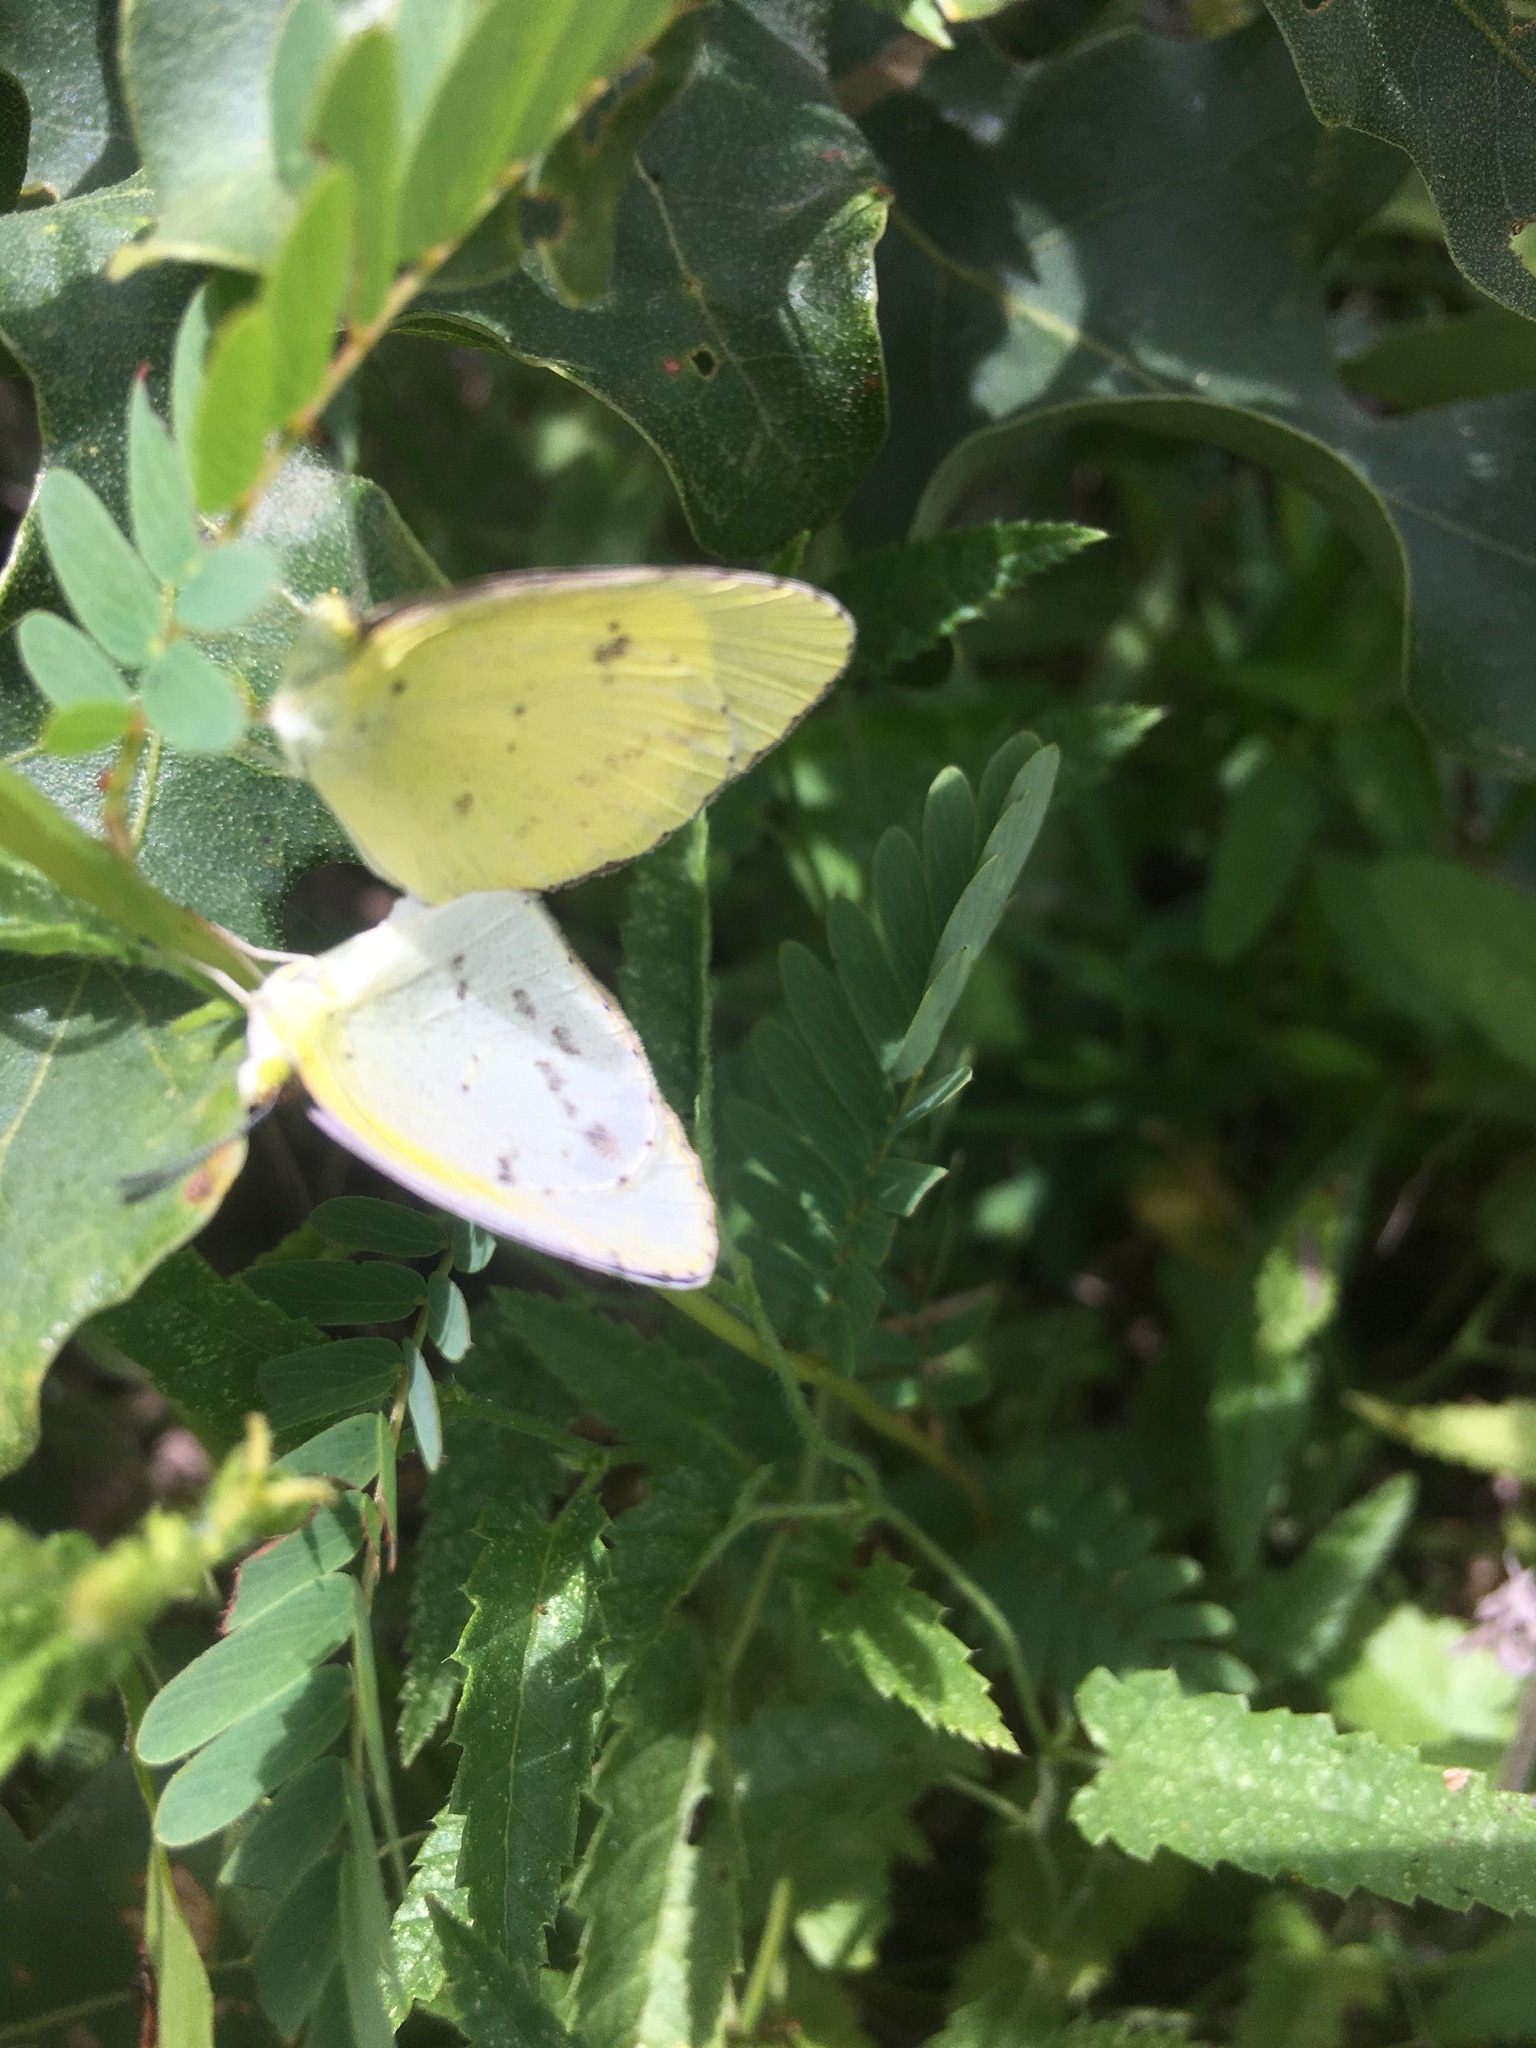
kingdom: Animalia
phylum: Arthropoda
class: Insecta
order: Lepidoptera
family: Pieridae
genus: Pyrisitia
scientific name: Pyrisitia lisa
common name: Little yellow
